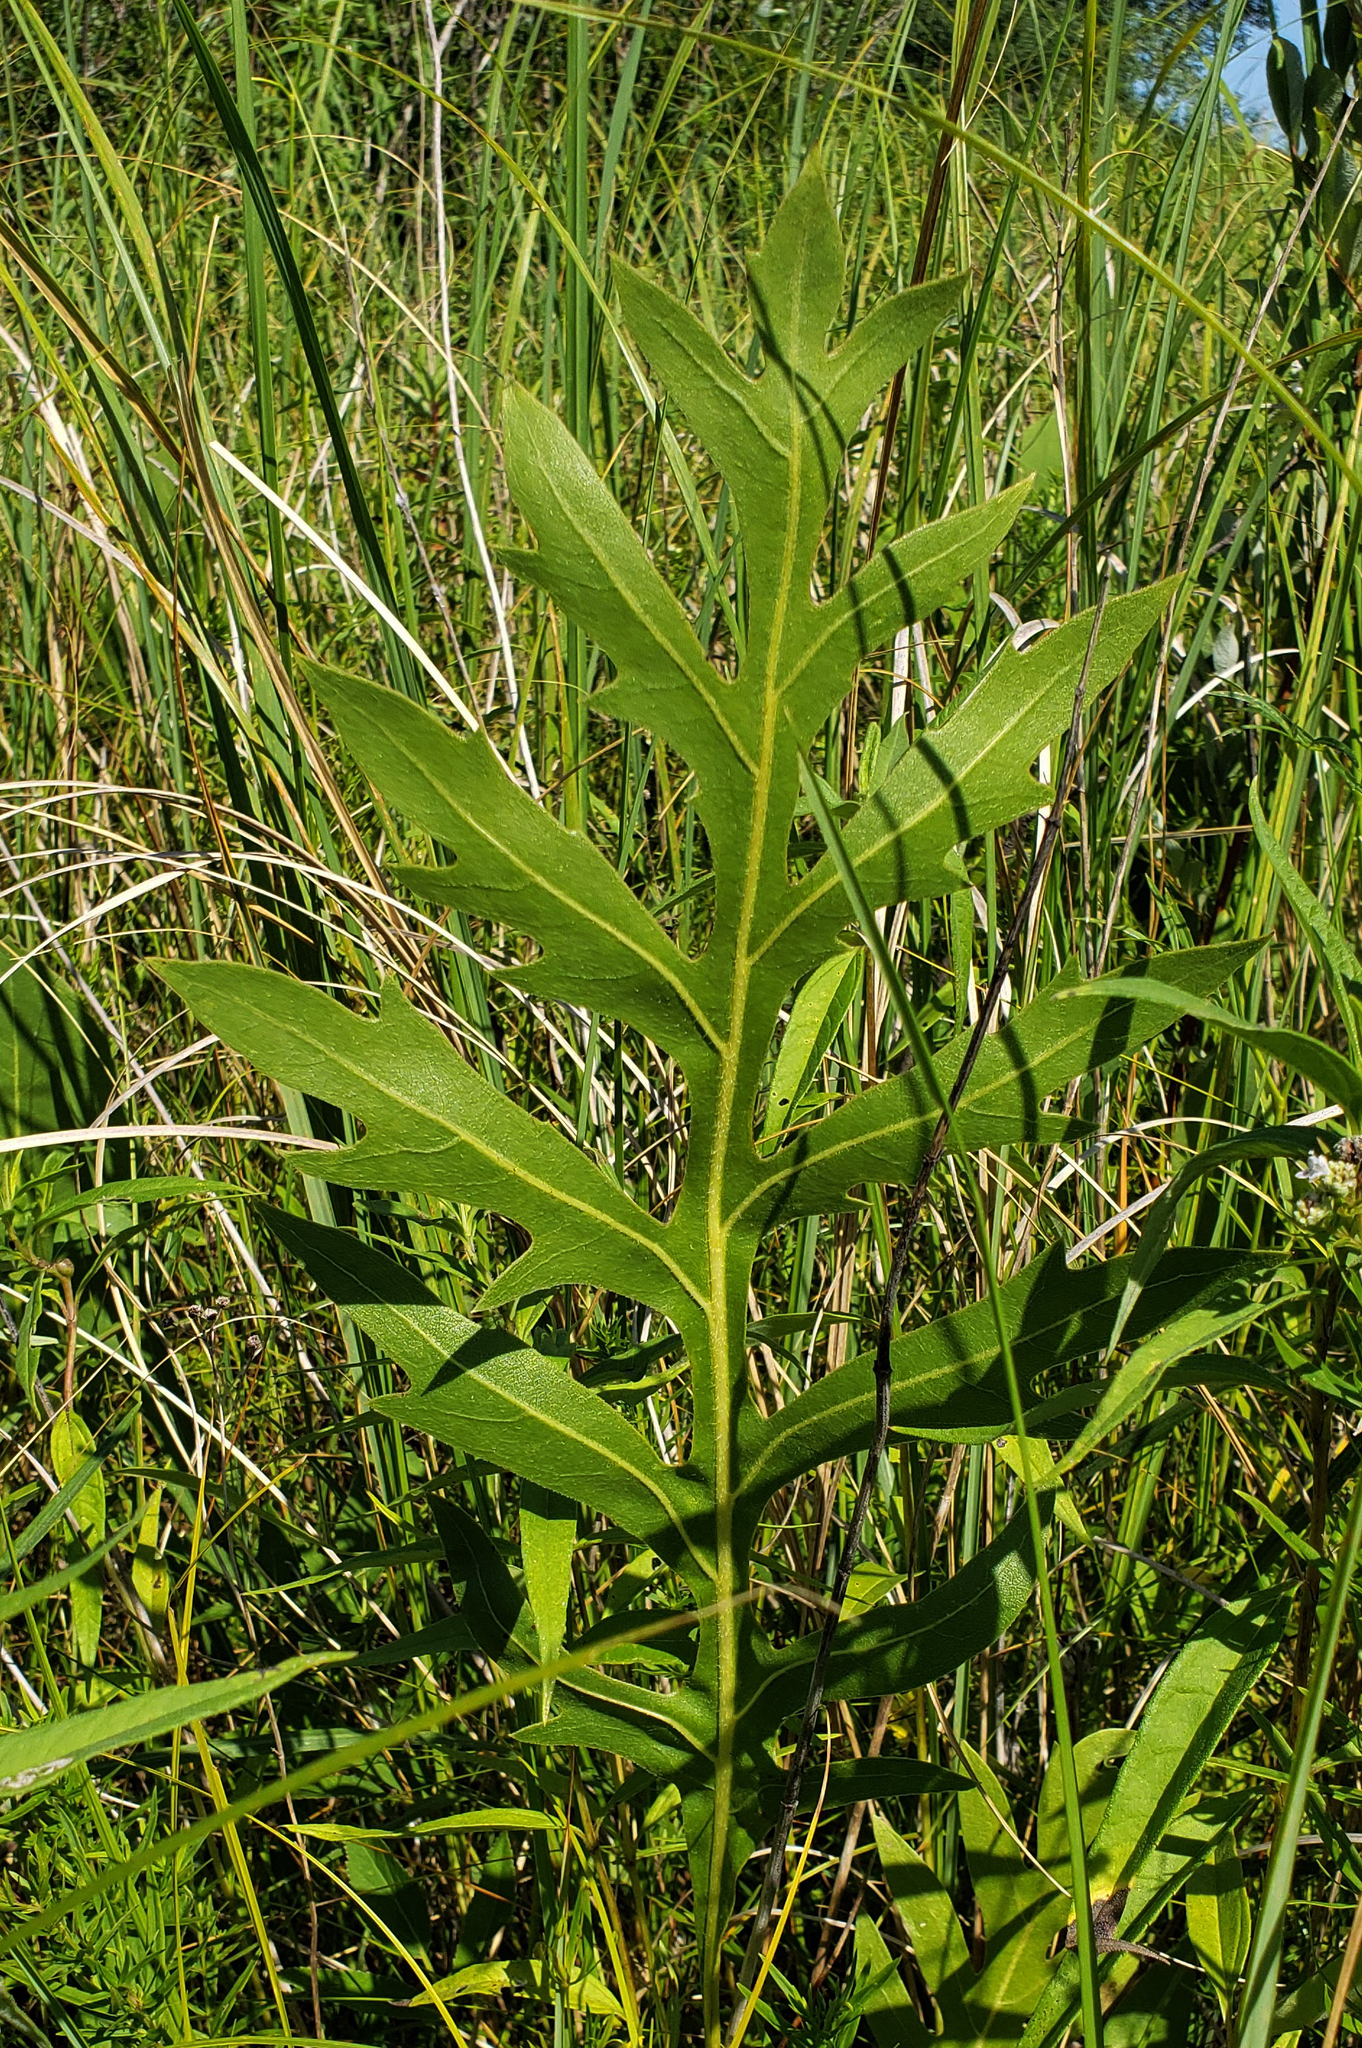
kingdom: Plantae
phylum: Tracheophyta
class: Magnoliopsida
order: Asterales
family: Asteraceae
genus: Silphium
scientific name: Silphium laciniatum
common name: Polarplant
